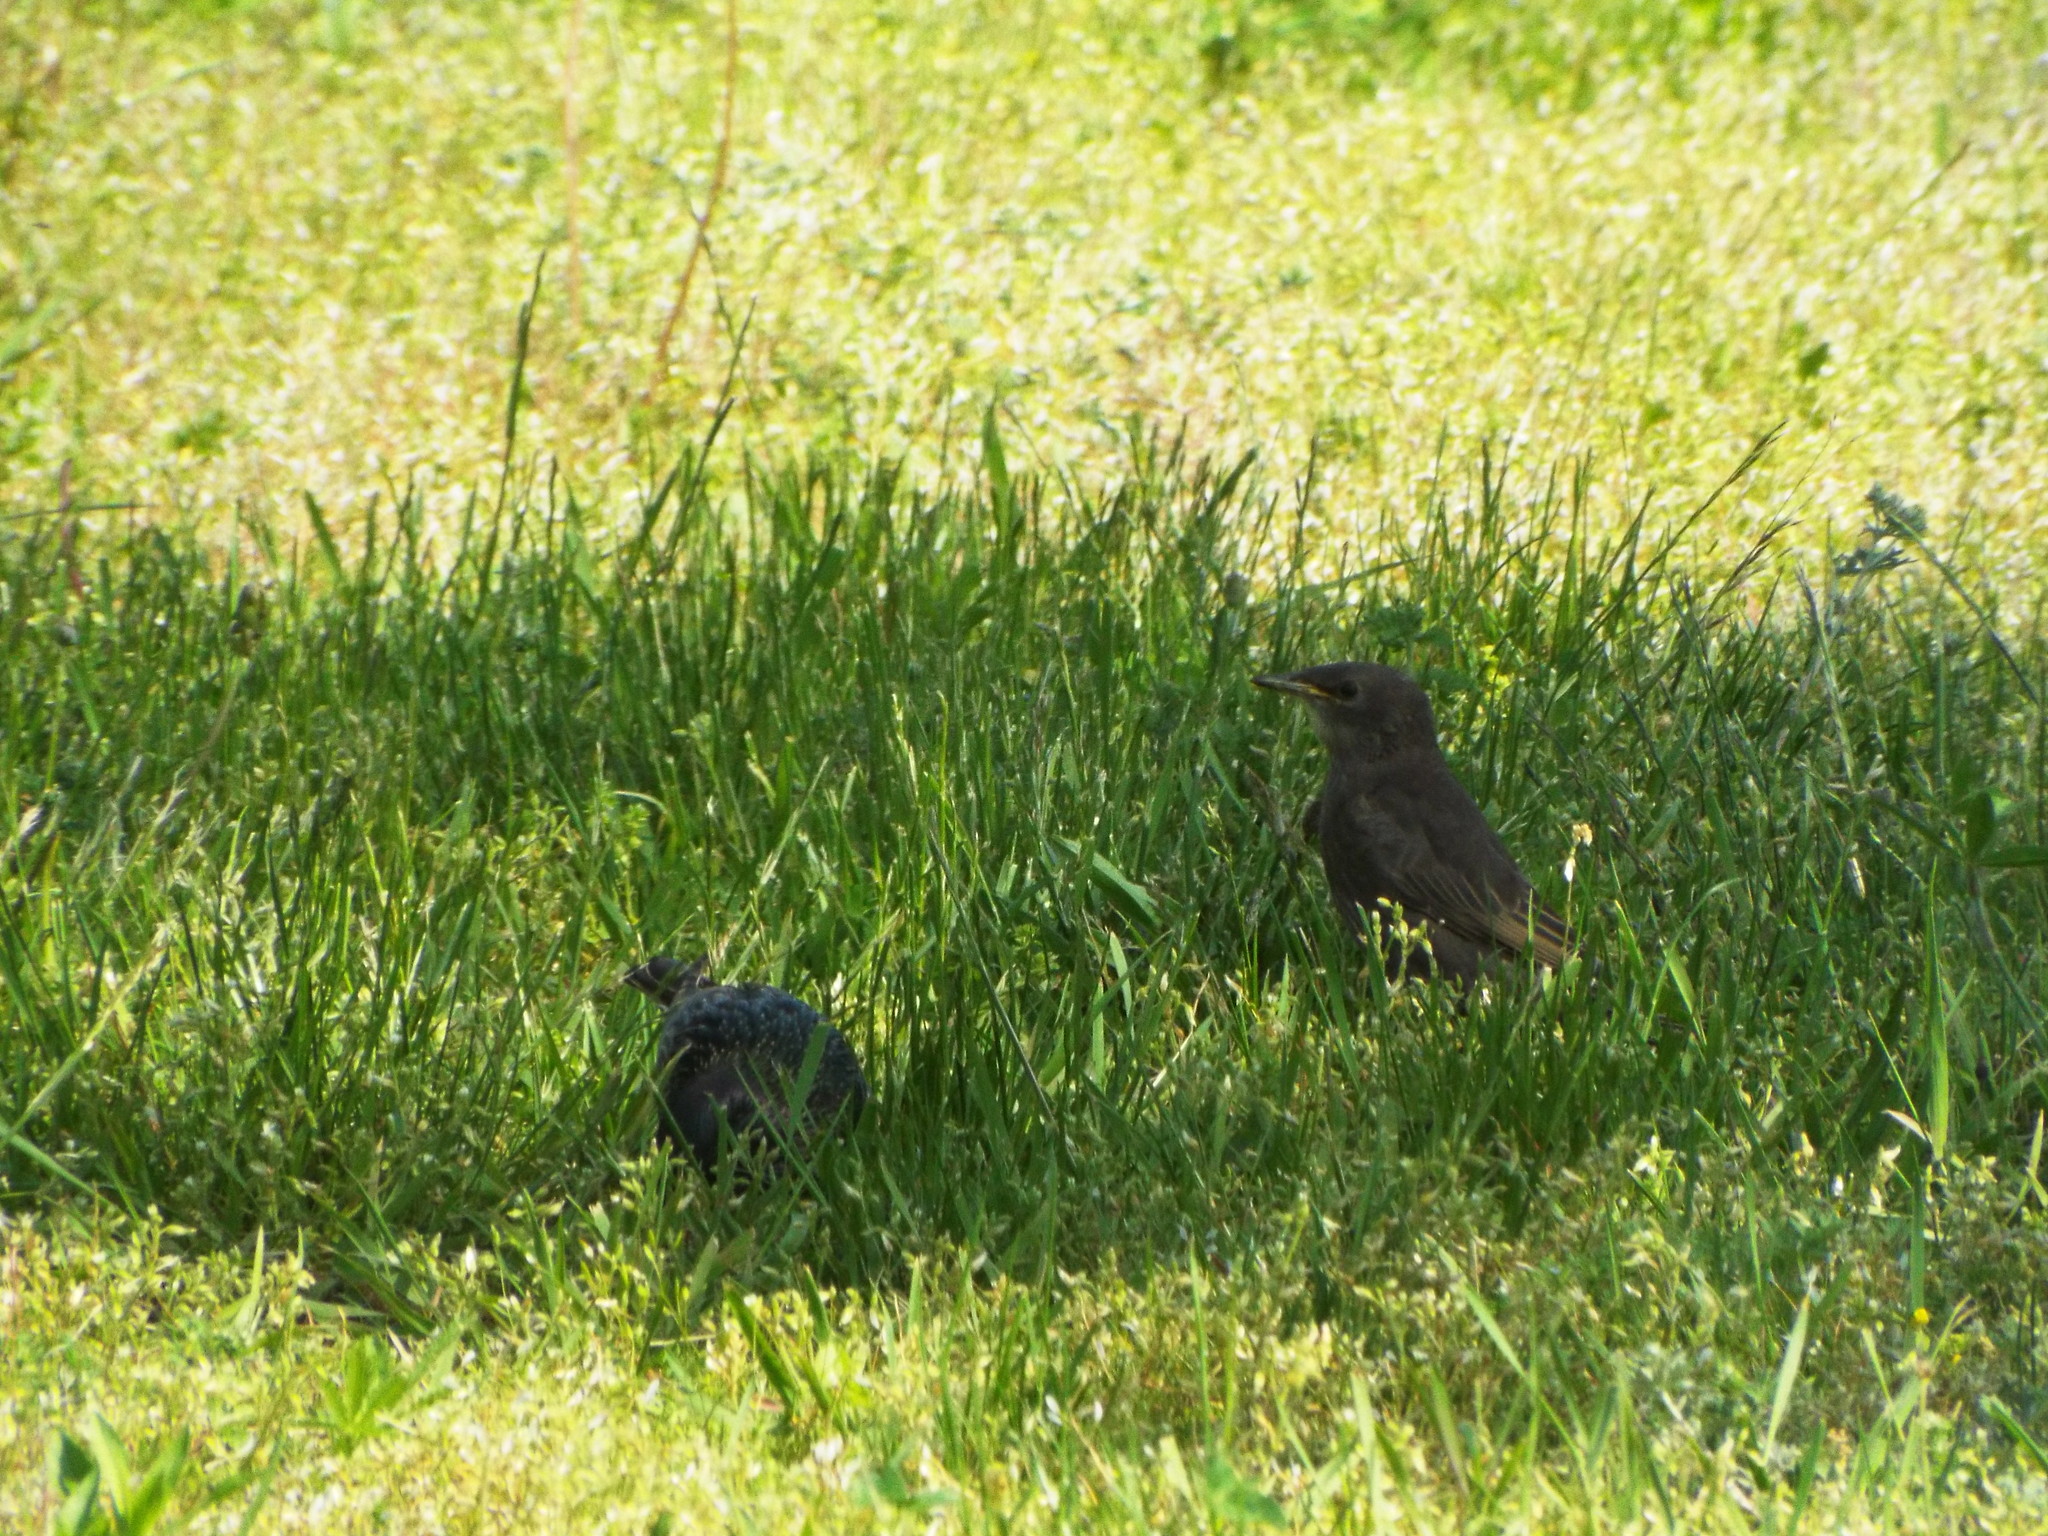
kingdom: Animalia
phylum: Chordata
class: Aves
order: Passeriformes
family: Sturnidae
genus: Sturnus
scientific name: Sturnus vulgaris
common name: Common starling
